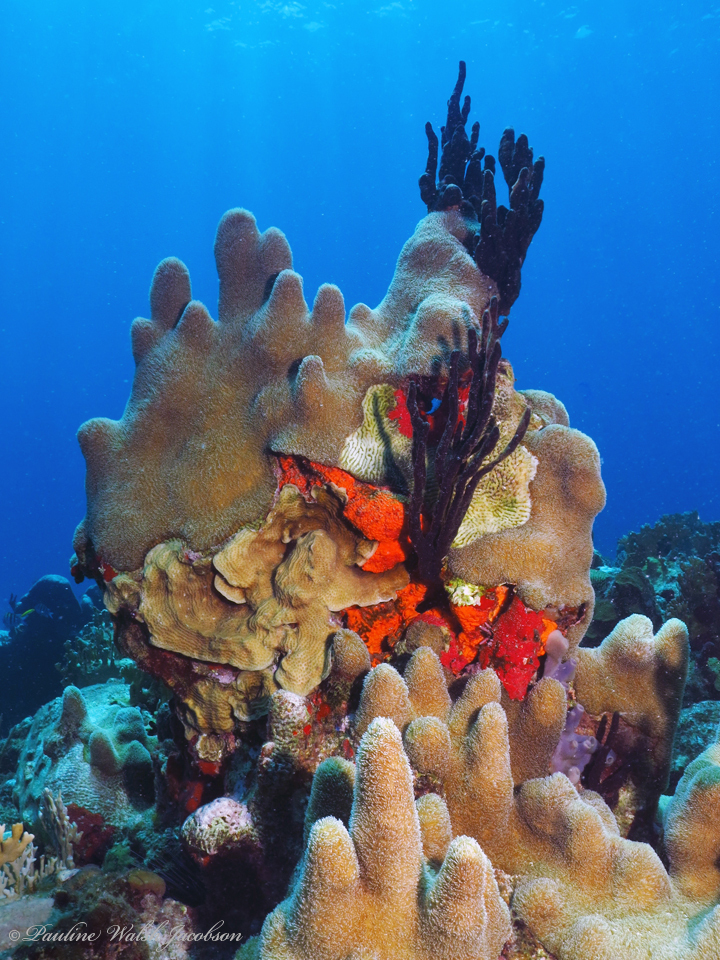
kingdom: Animalia
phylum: Cnidaria
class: Anthozoa
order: Scleractinia
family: Meandrinidae
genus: Dendrogyra
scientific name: Dendrogyra cylindrus
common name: Pillar coral
